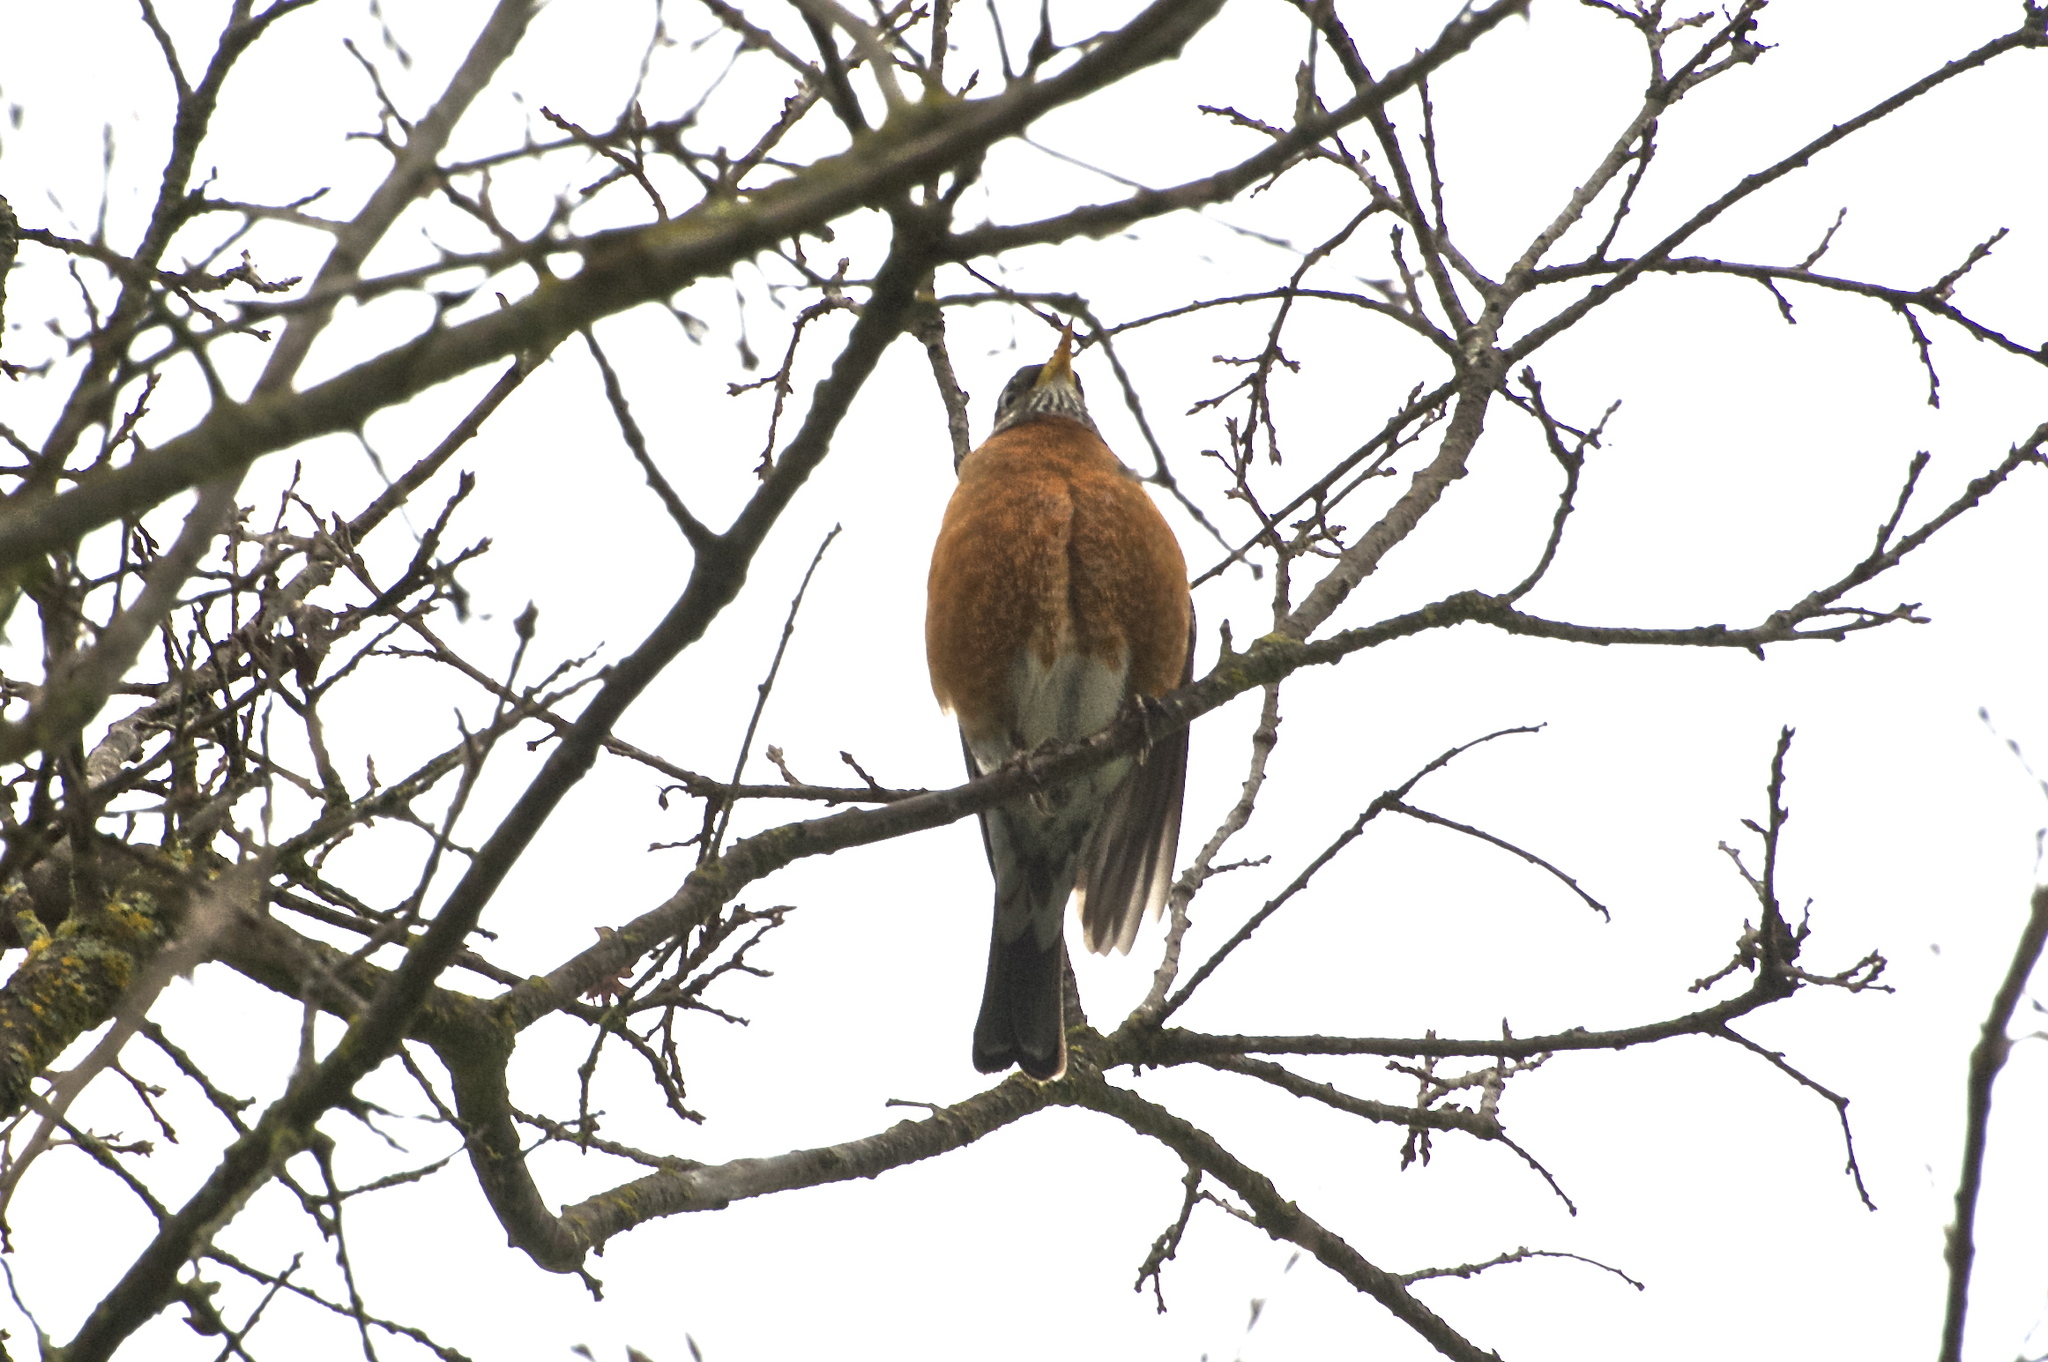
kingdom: Animalia
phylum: Chordata
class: Aves
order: Passeriformes
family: Turdidae
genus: Turdus
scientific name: Turdus migratorius
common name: American robin
